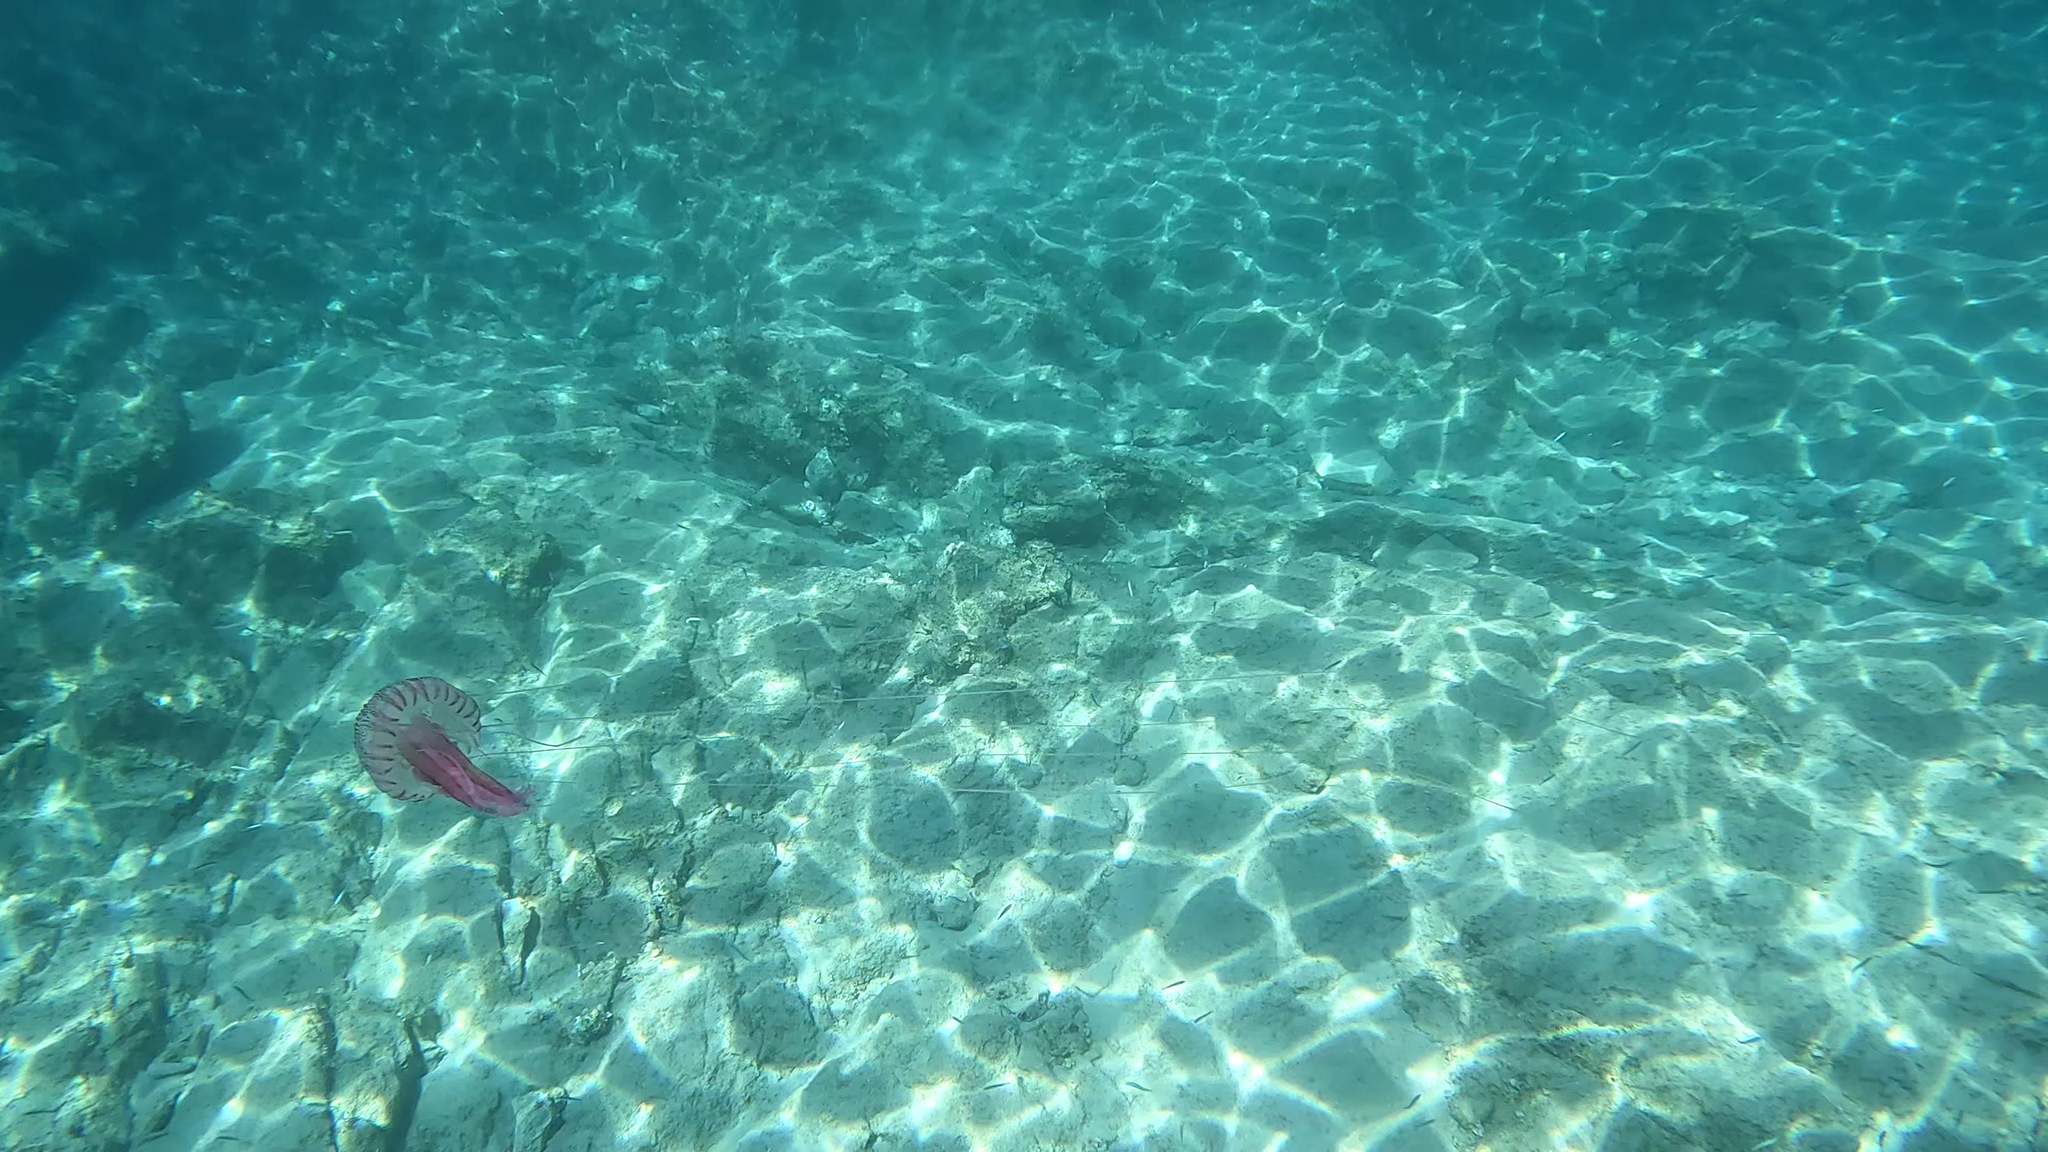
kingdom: Animalia
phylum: Cnidaria
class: Scyphozoa
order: Semaeostomeae
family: Pelagiidae
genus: Pelagia
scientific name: Pelagia noctiluca
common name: Mauve stinger
